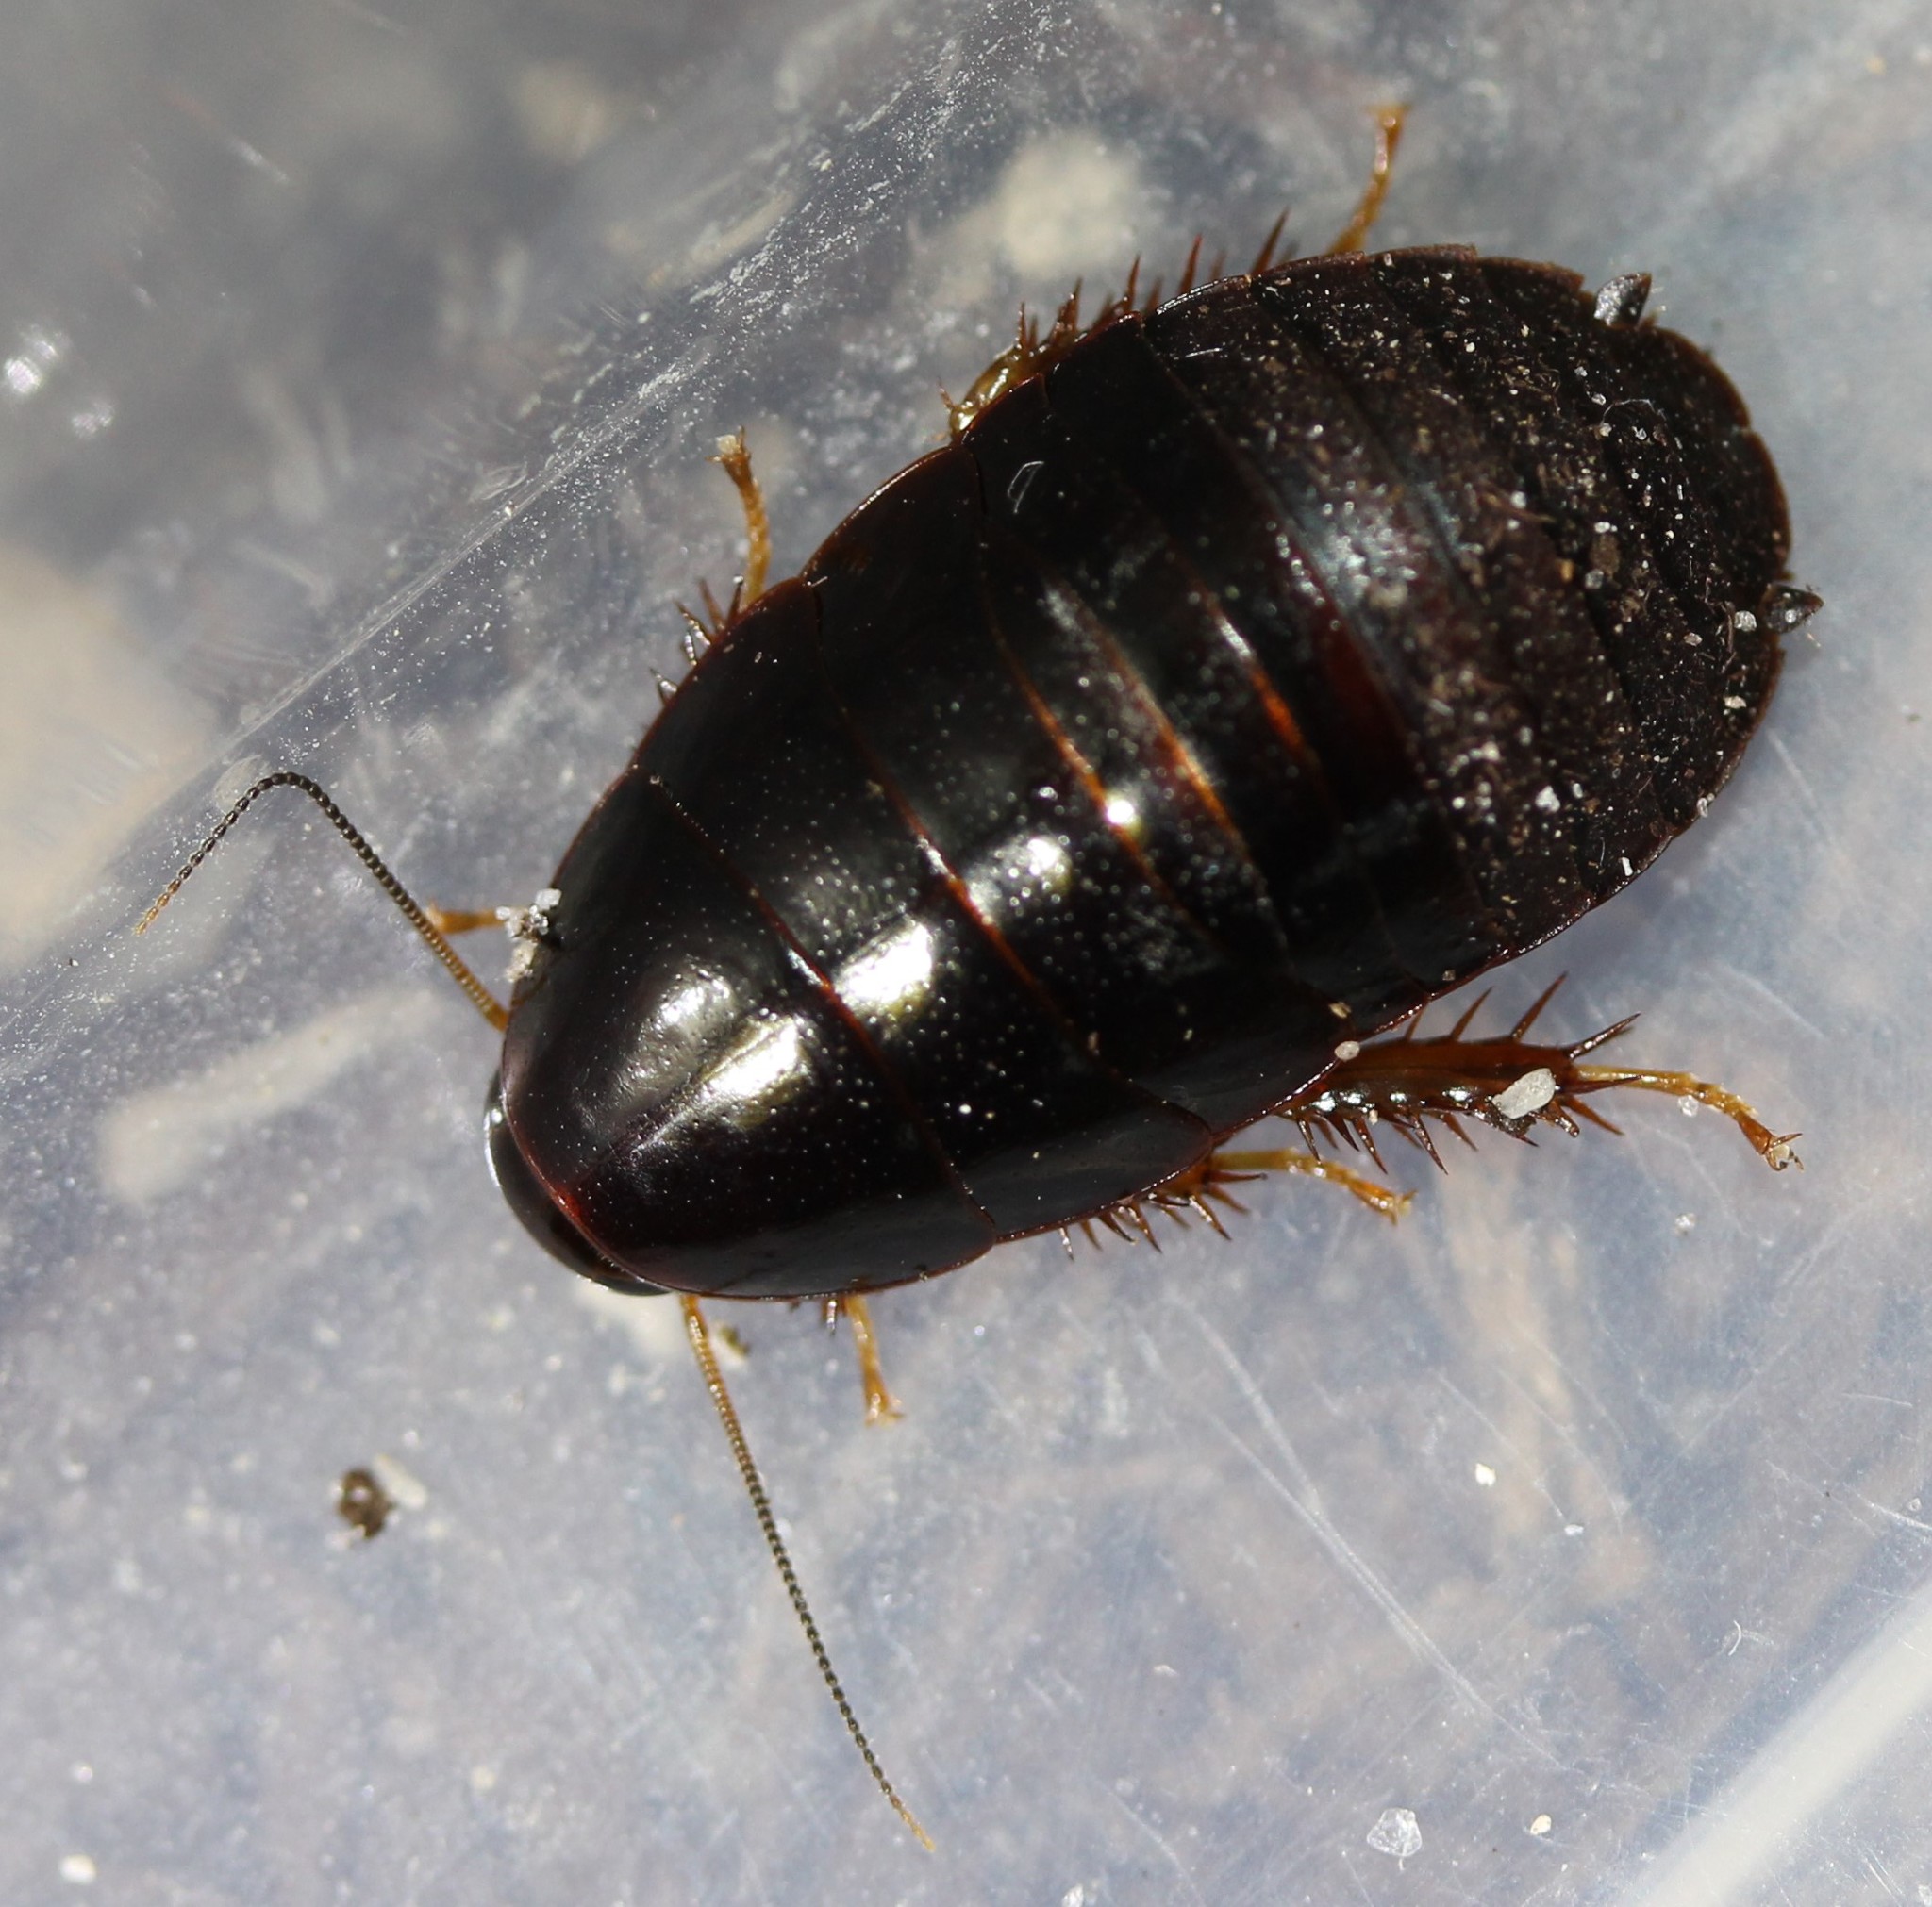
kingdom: Animalia
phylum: Arthropoda
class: Insecta
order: Blattodea
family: Blaberidae
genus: Pycnoscelus
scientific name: Pycnoscelus surinamensis
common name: Surinam cockroach
